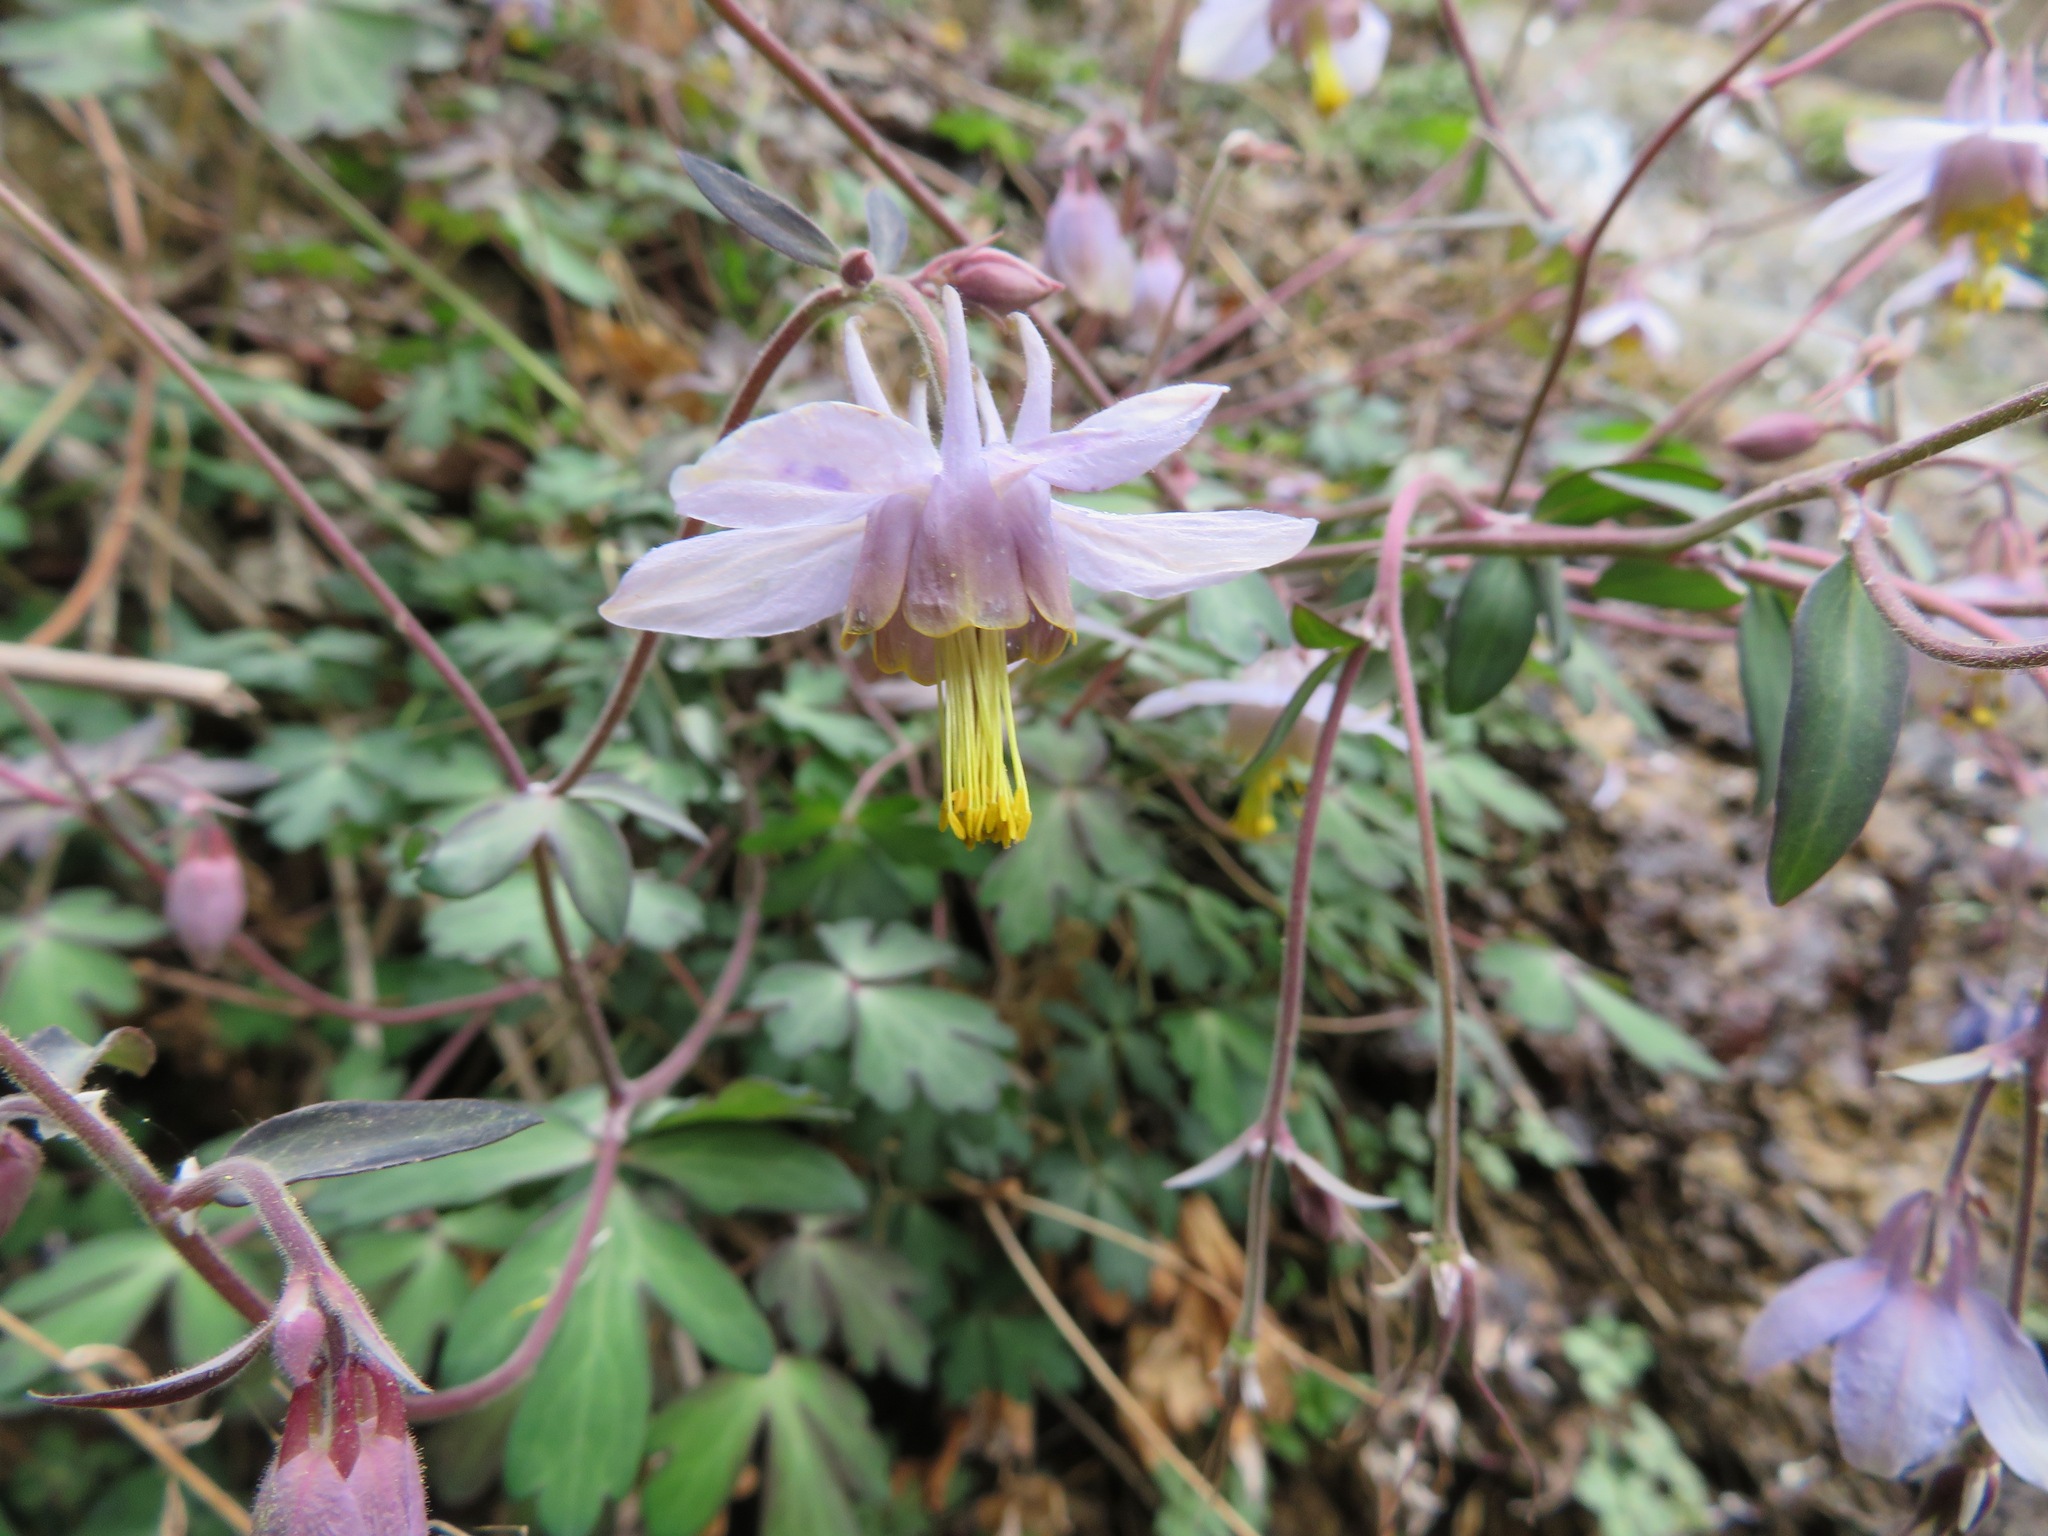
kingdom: Plantae
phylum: Tracheophyta
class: Magnoliopsida
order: Ranunculales
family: Ranunculaceae
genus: Aquilegia
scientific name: Aquilegia hebeica
